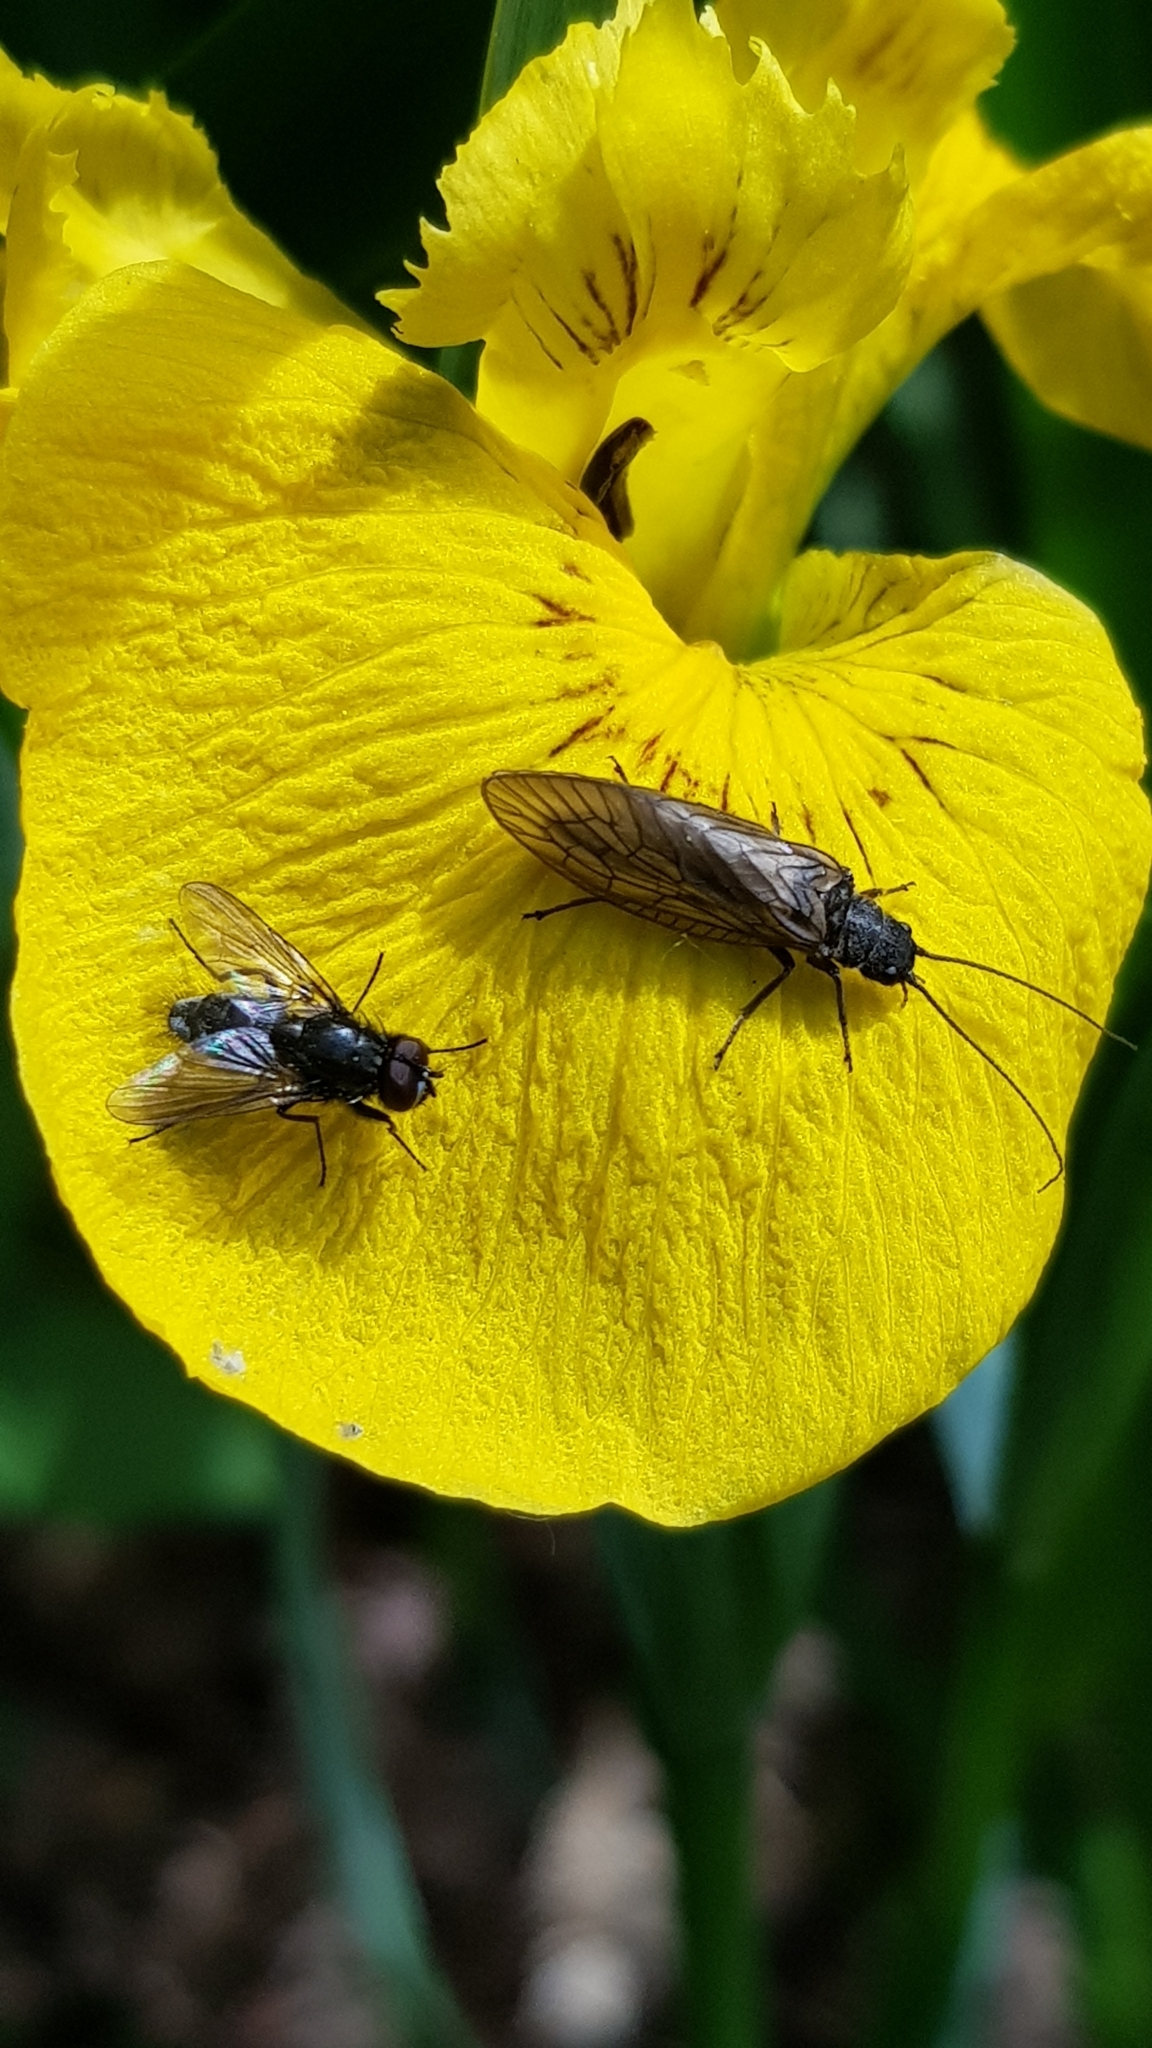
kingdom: Animalia
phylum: Arthropoda
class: Insecta
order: Megaloptera
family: Sialidae
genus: Sialis
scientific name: Sialis
